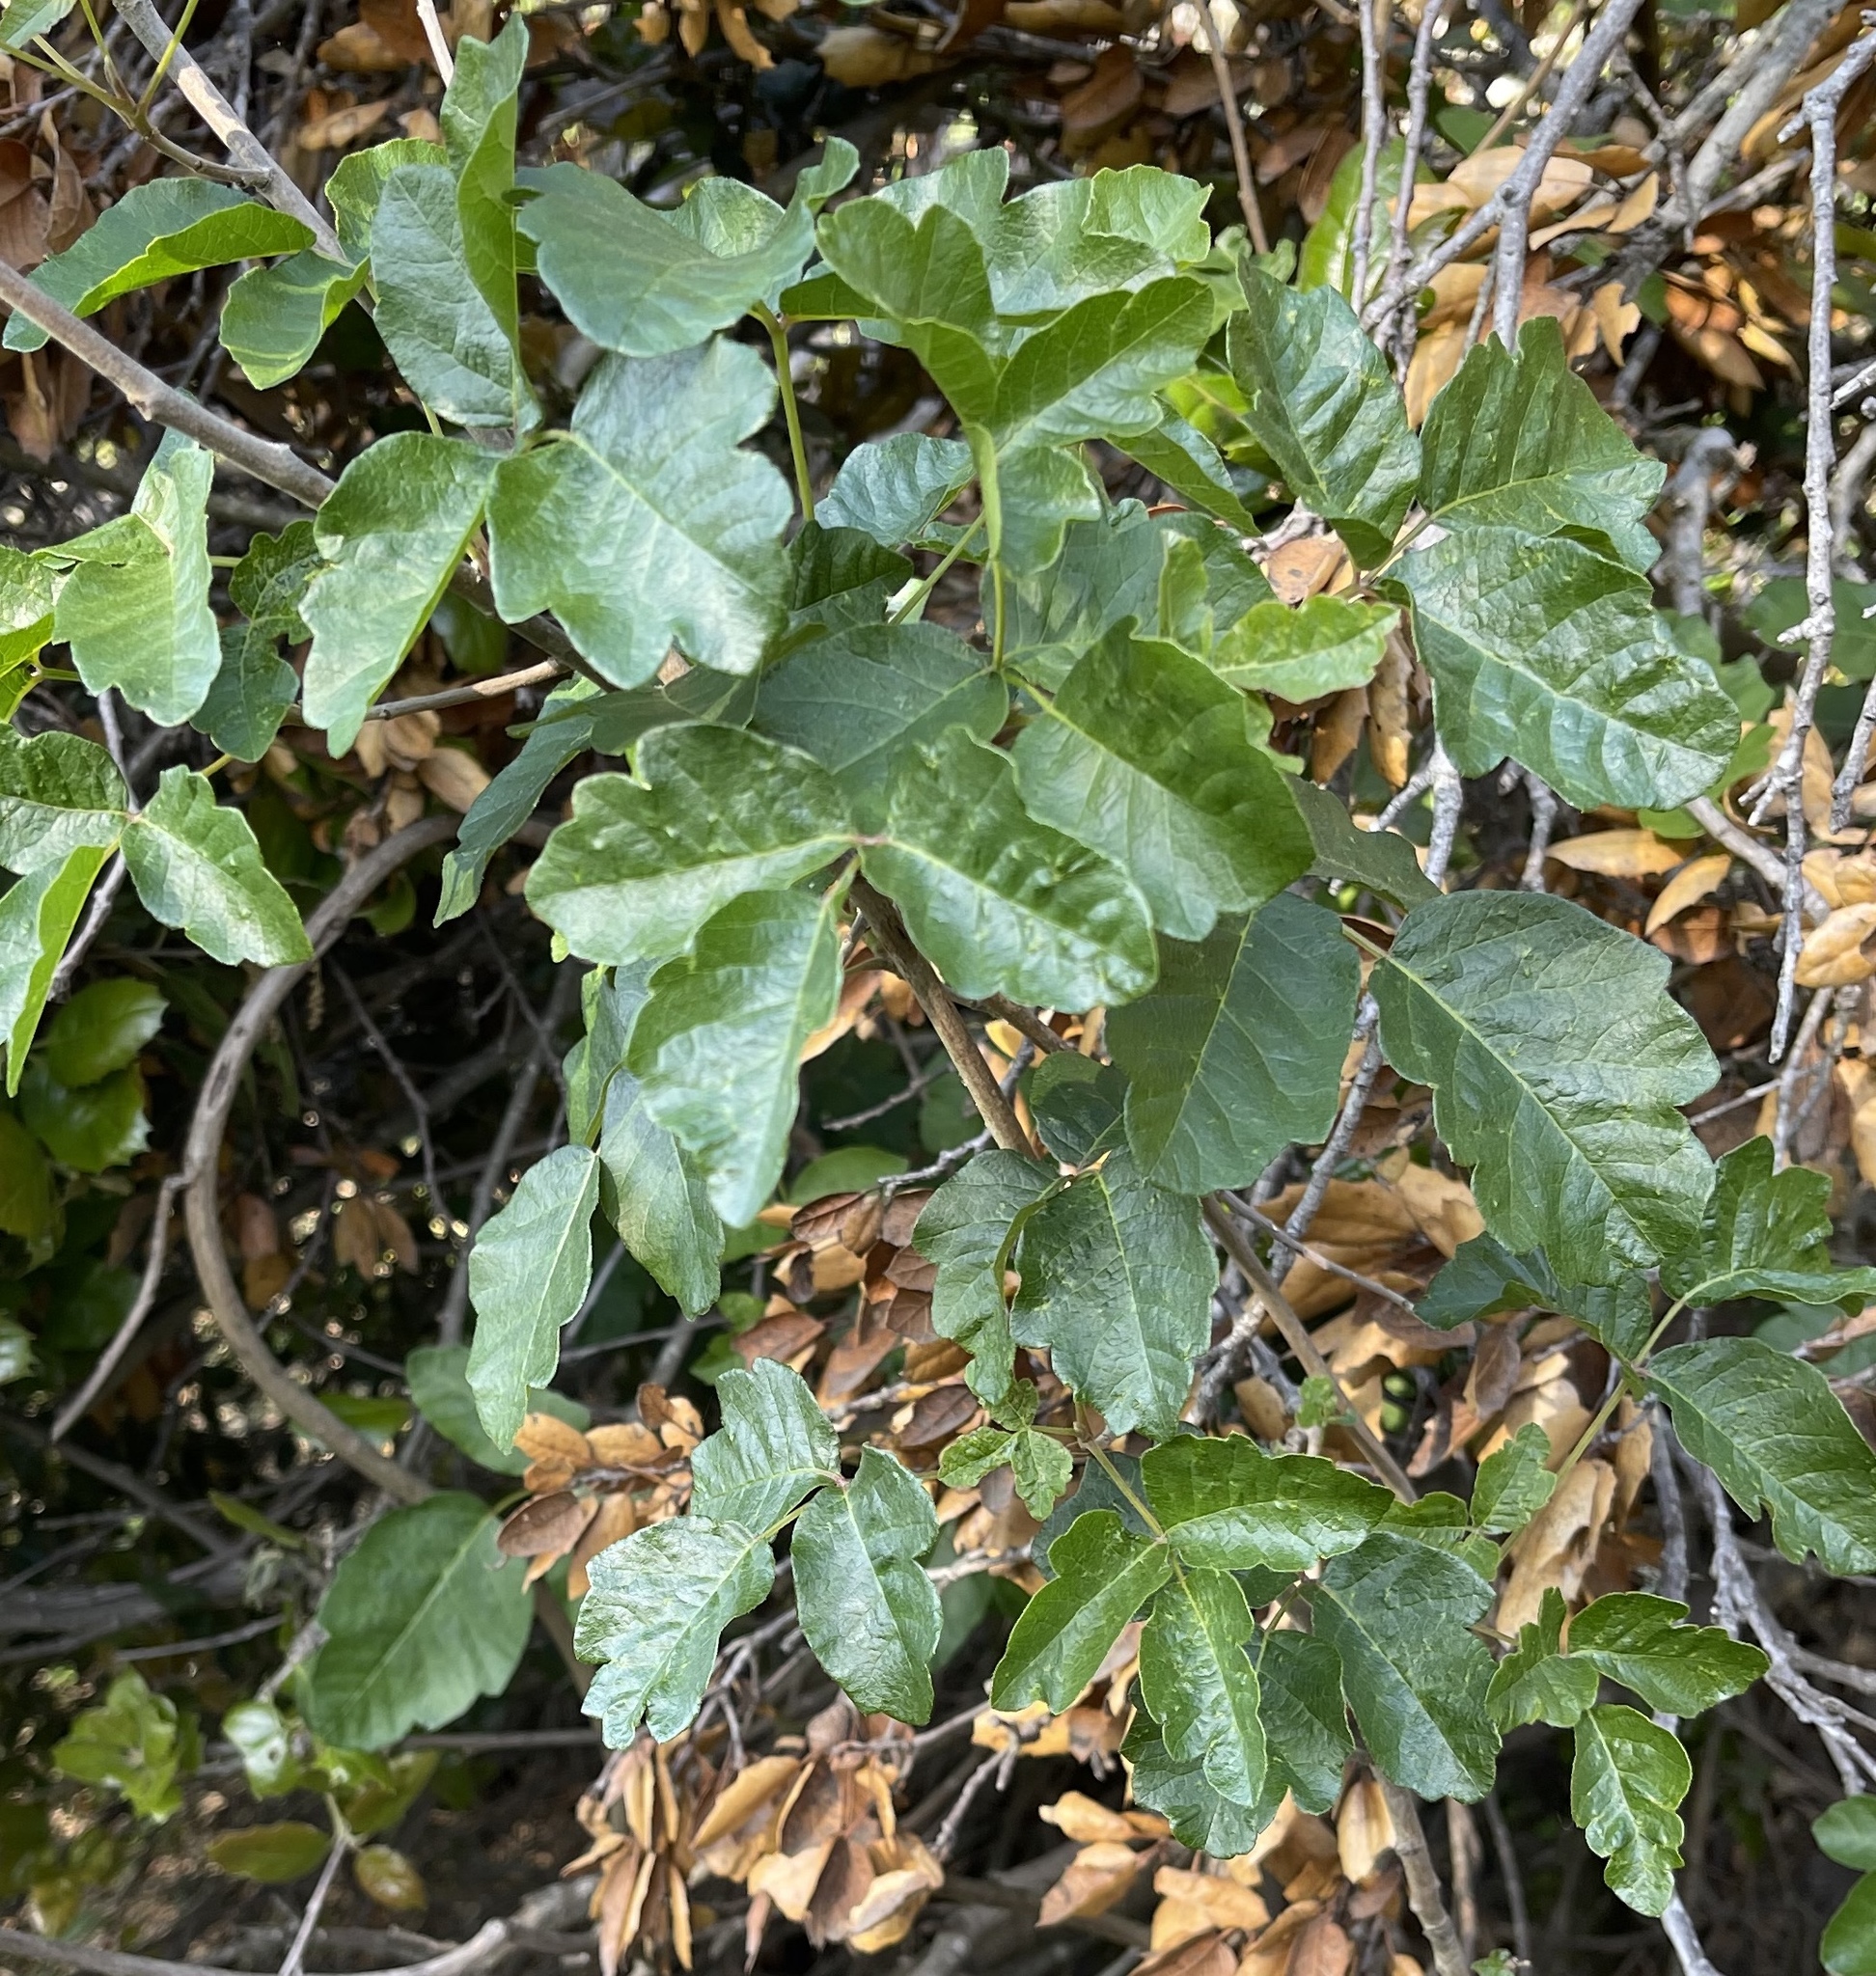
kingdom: Plantae
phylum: Tracheophyta
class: Magnoliopsida
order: Sapindales
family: Anacardiaceae
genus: Toxicodendron
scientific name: Toxicodendron diversilobum
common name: Pacific poison-oak
